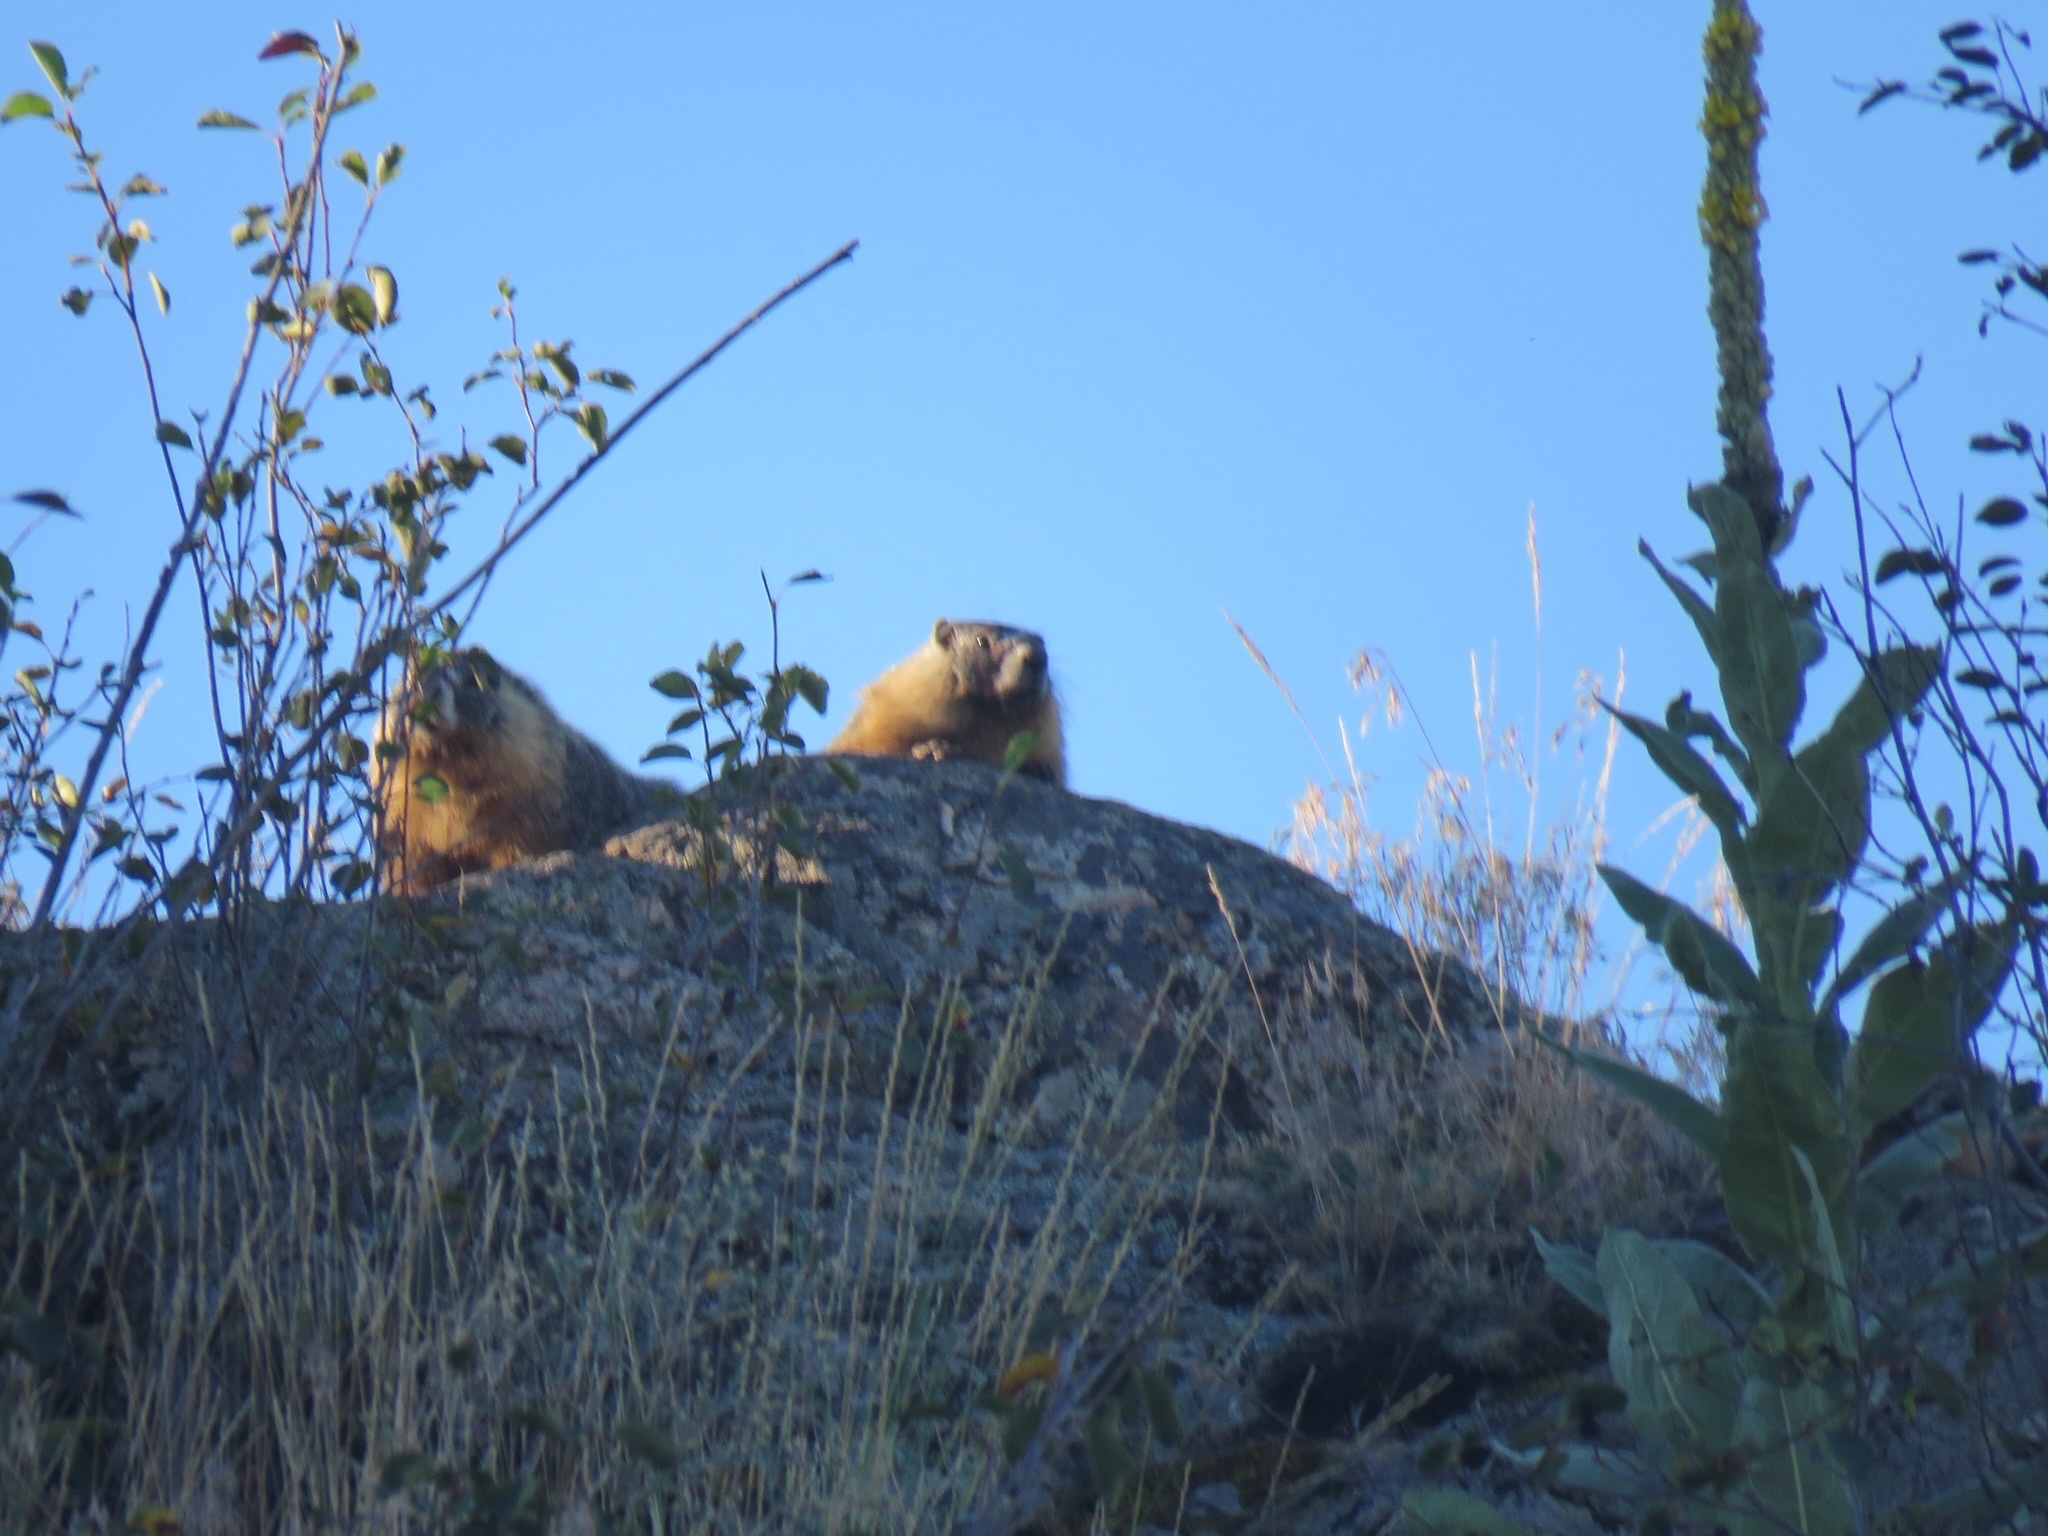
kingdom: Animalia
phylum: Chordata
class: Mammalia
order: Rodentia
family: Sciuridae
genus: Marmota
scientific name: Marmota flaviventris
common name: Yellow-bellied marmot
